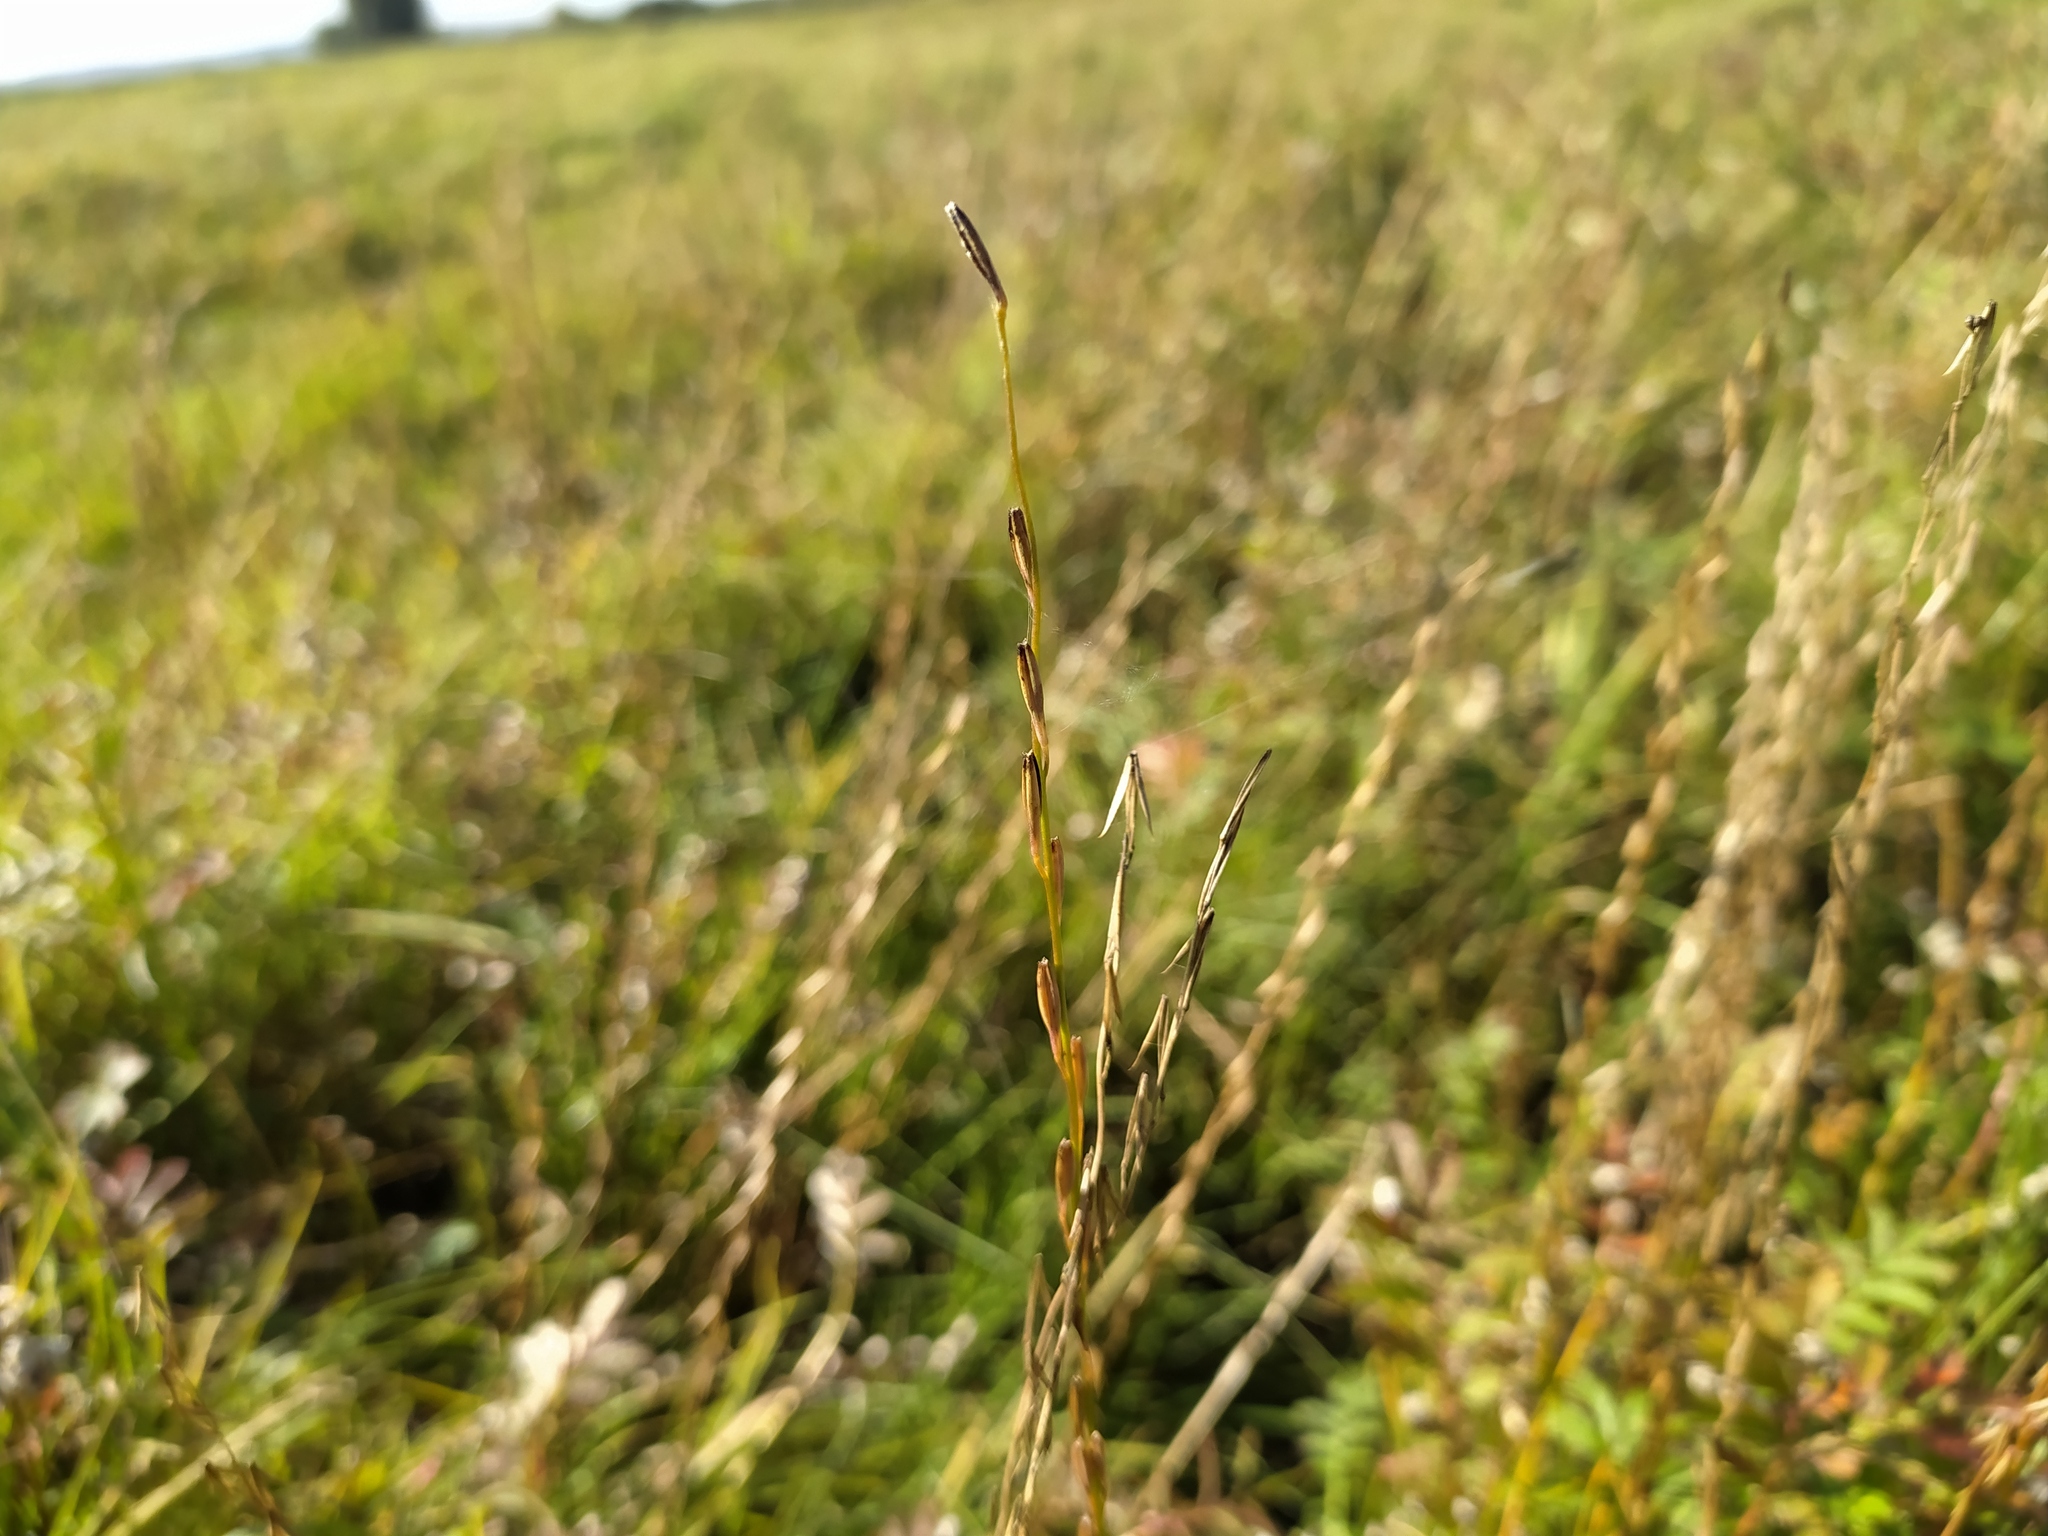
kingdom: Plantae
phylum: Tracheophyta
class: Liliopsida
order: Alismatales
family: Juncaginaceae
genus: Triglochin
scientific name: Triglochin palustris
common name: Marsh arrowgrass
